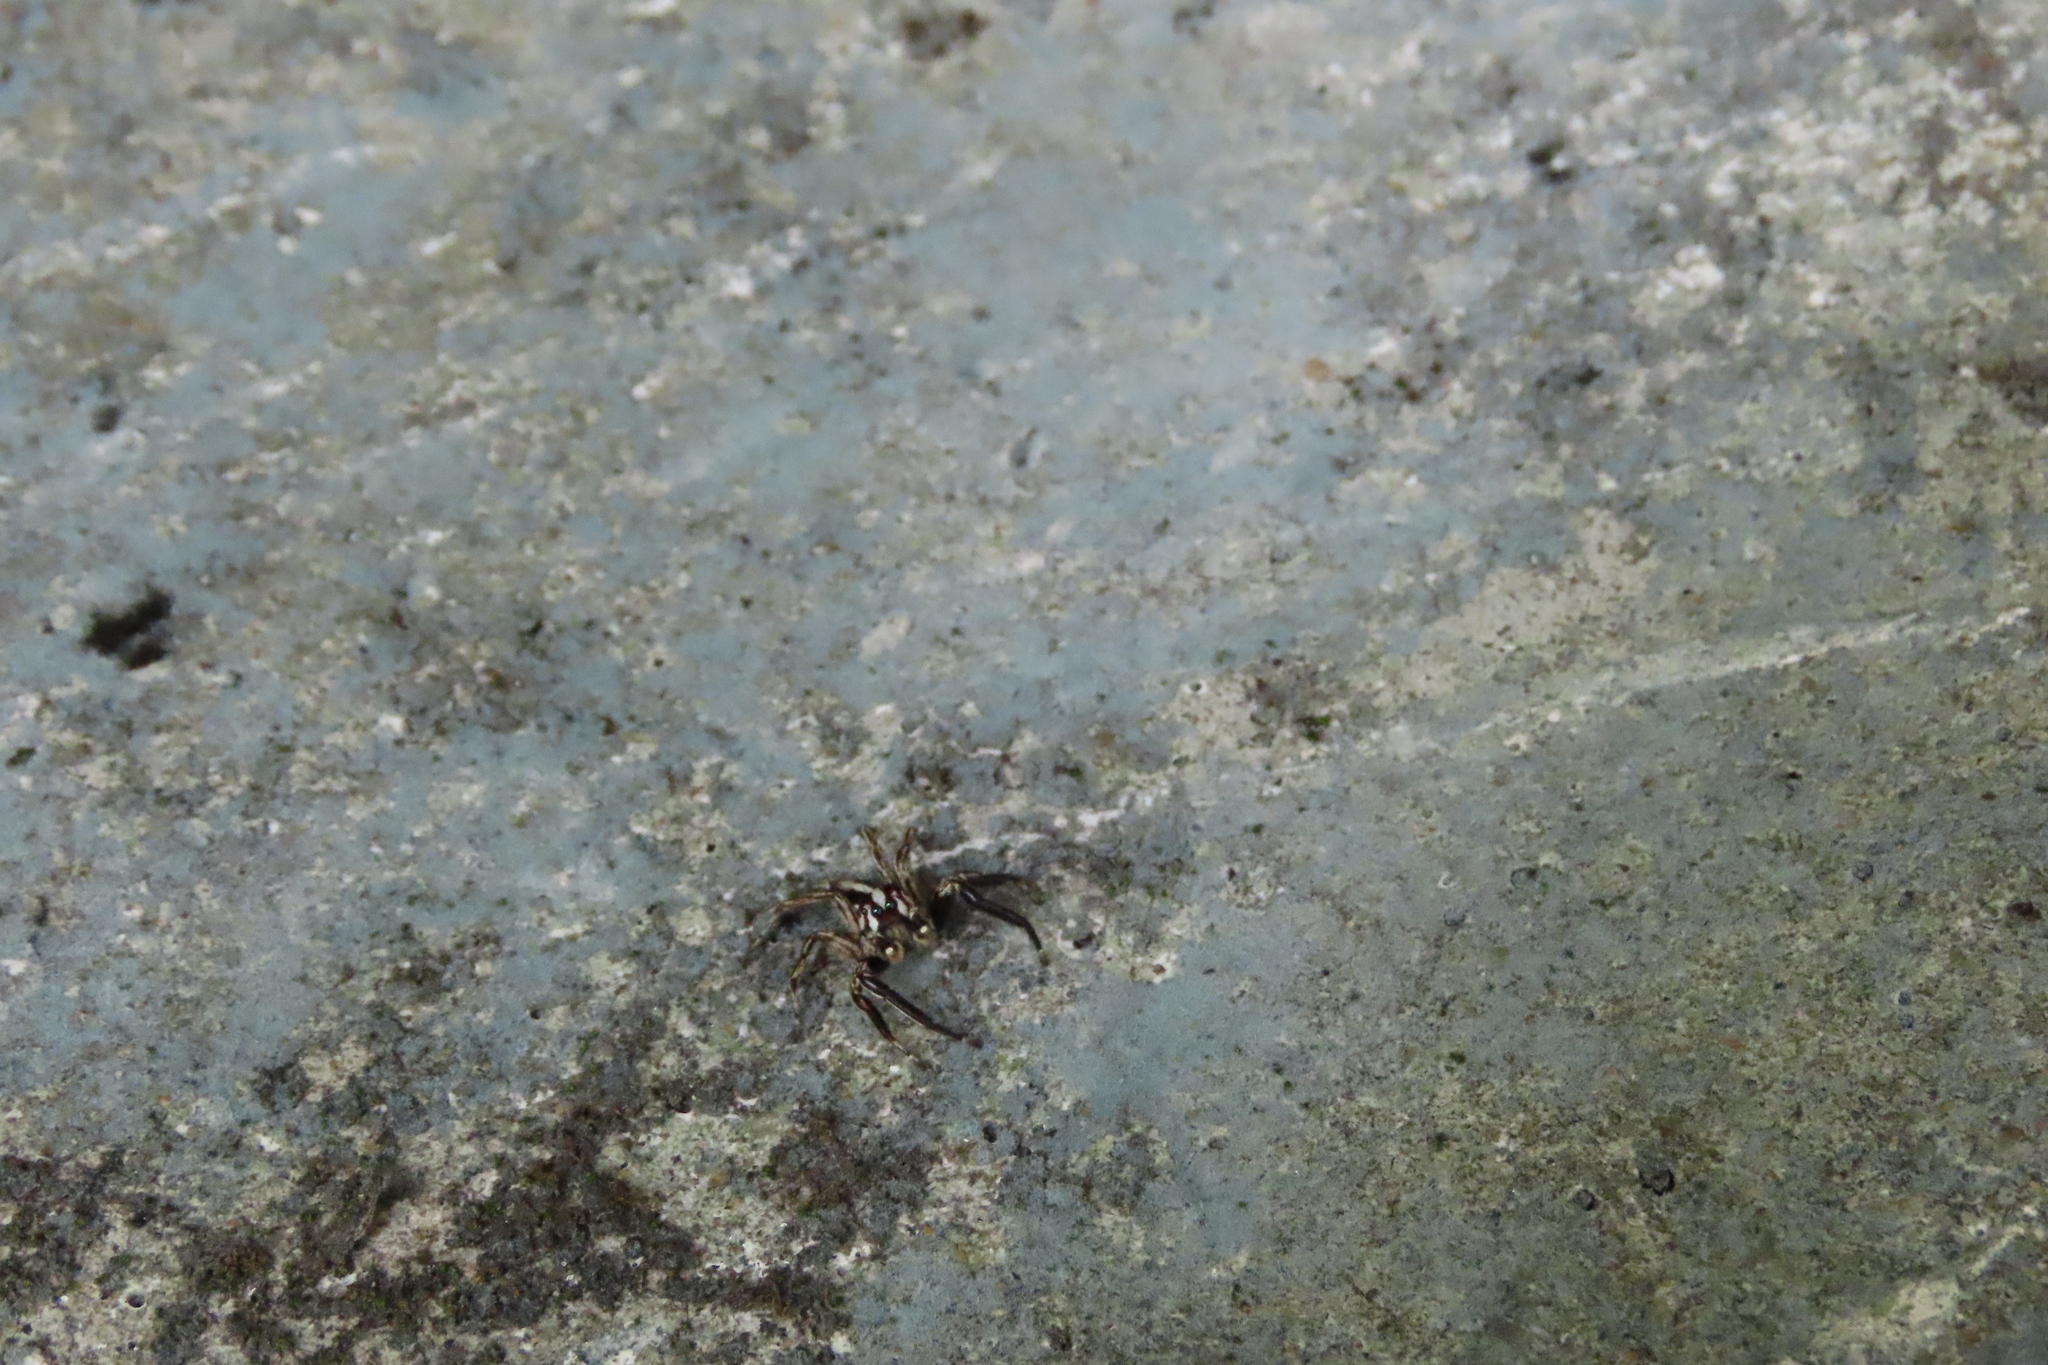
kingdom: Animalia
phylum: Arthropoda
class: Arachnida
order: Araneae
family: Salticidae
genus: Plexippus
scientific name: Plexippus paykulli
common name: Pantropical jumper
